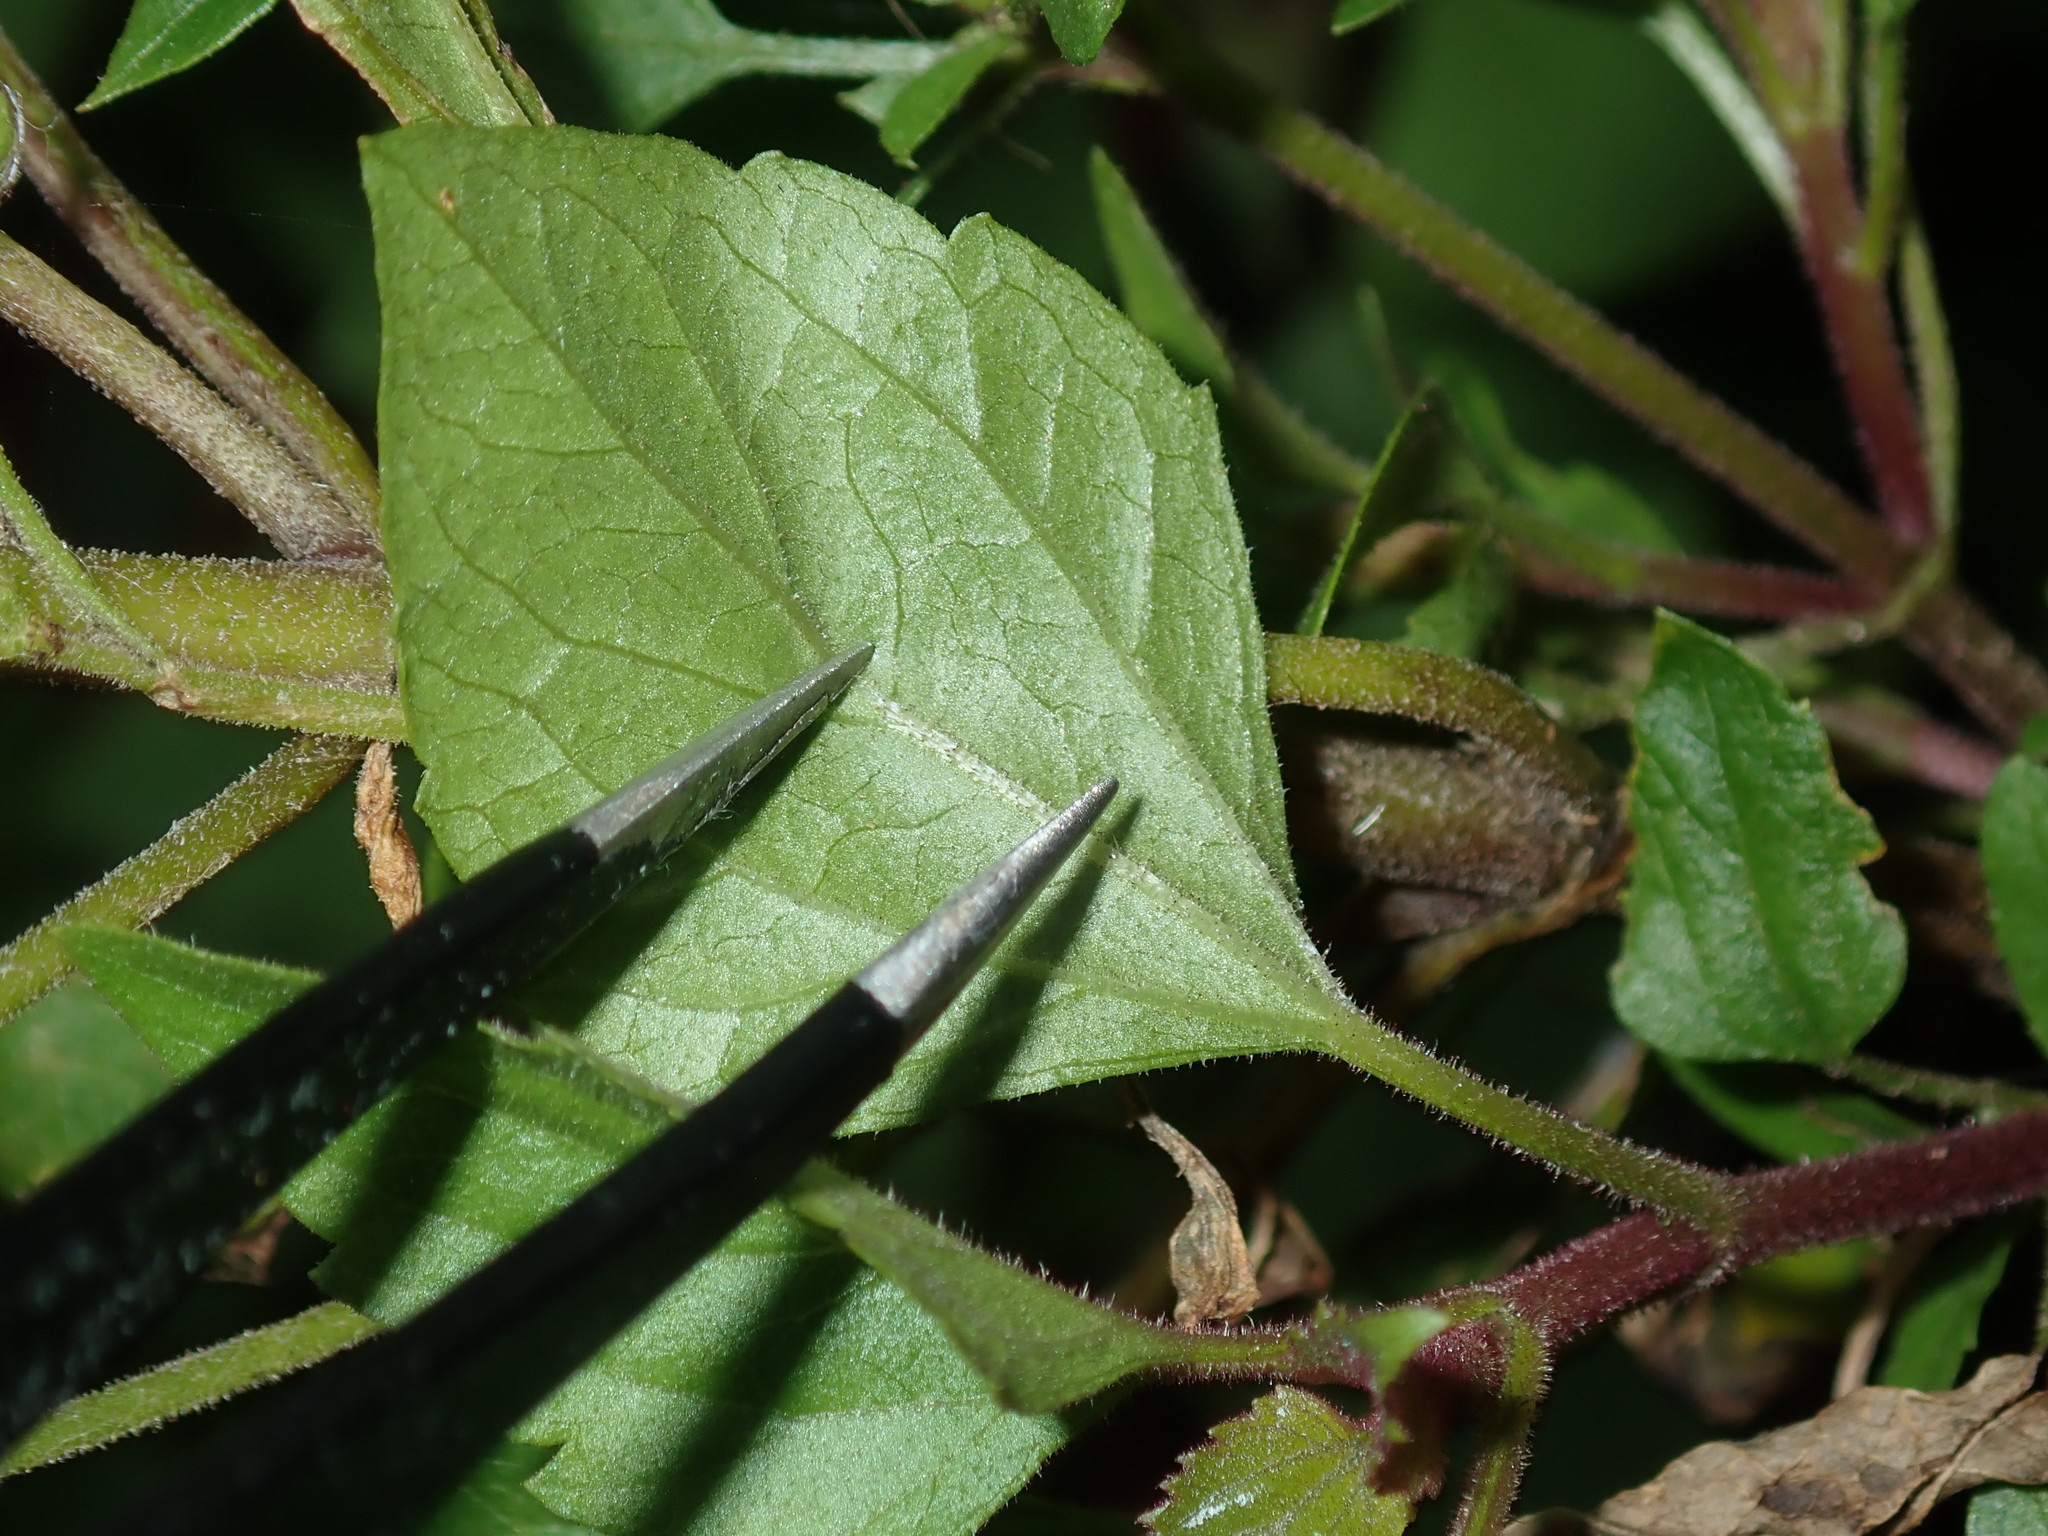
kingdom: Plantae
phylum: Tracheophyta
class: Magnoliopsida
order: Asterales
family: Asteraceae
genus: Ageratina
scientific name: Ageratina adenophora
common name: Sticky snakeroot
